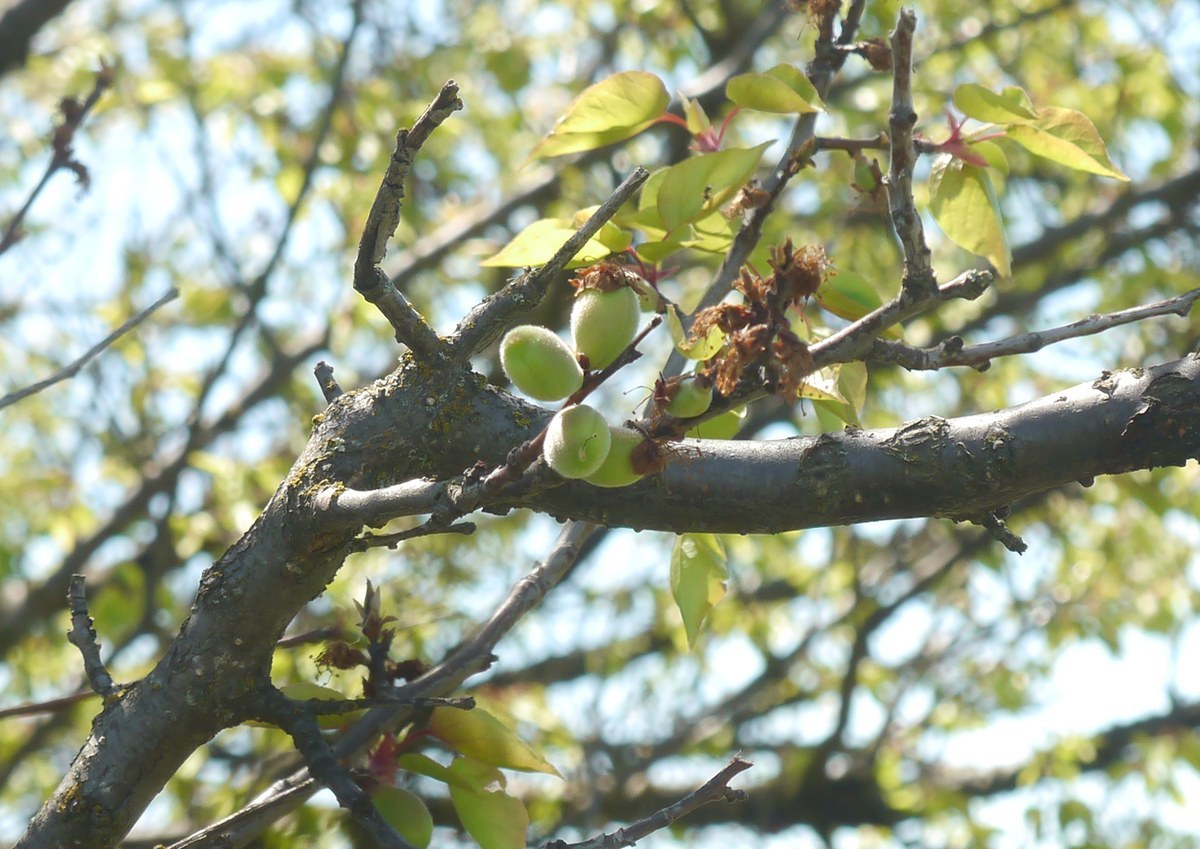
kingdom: Plantae
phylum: Tracheophyta
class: Magnoliopsida
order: Rosales
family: Rosaceae
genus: Prunus
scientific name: Prunus armeniaca
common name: Apricot
